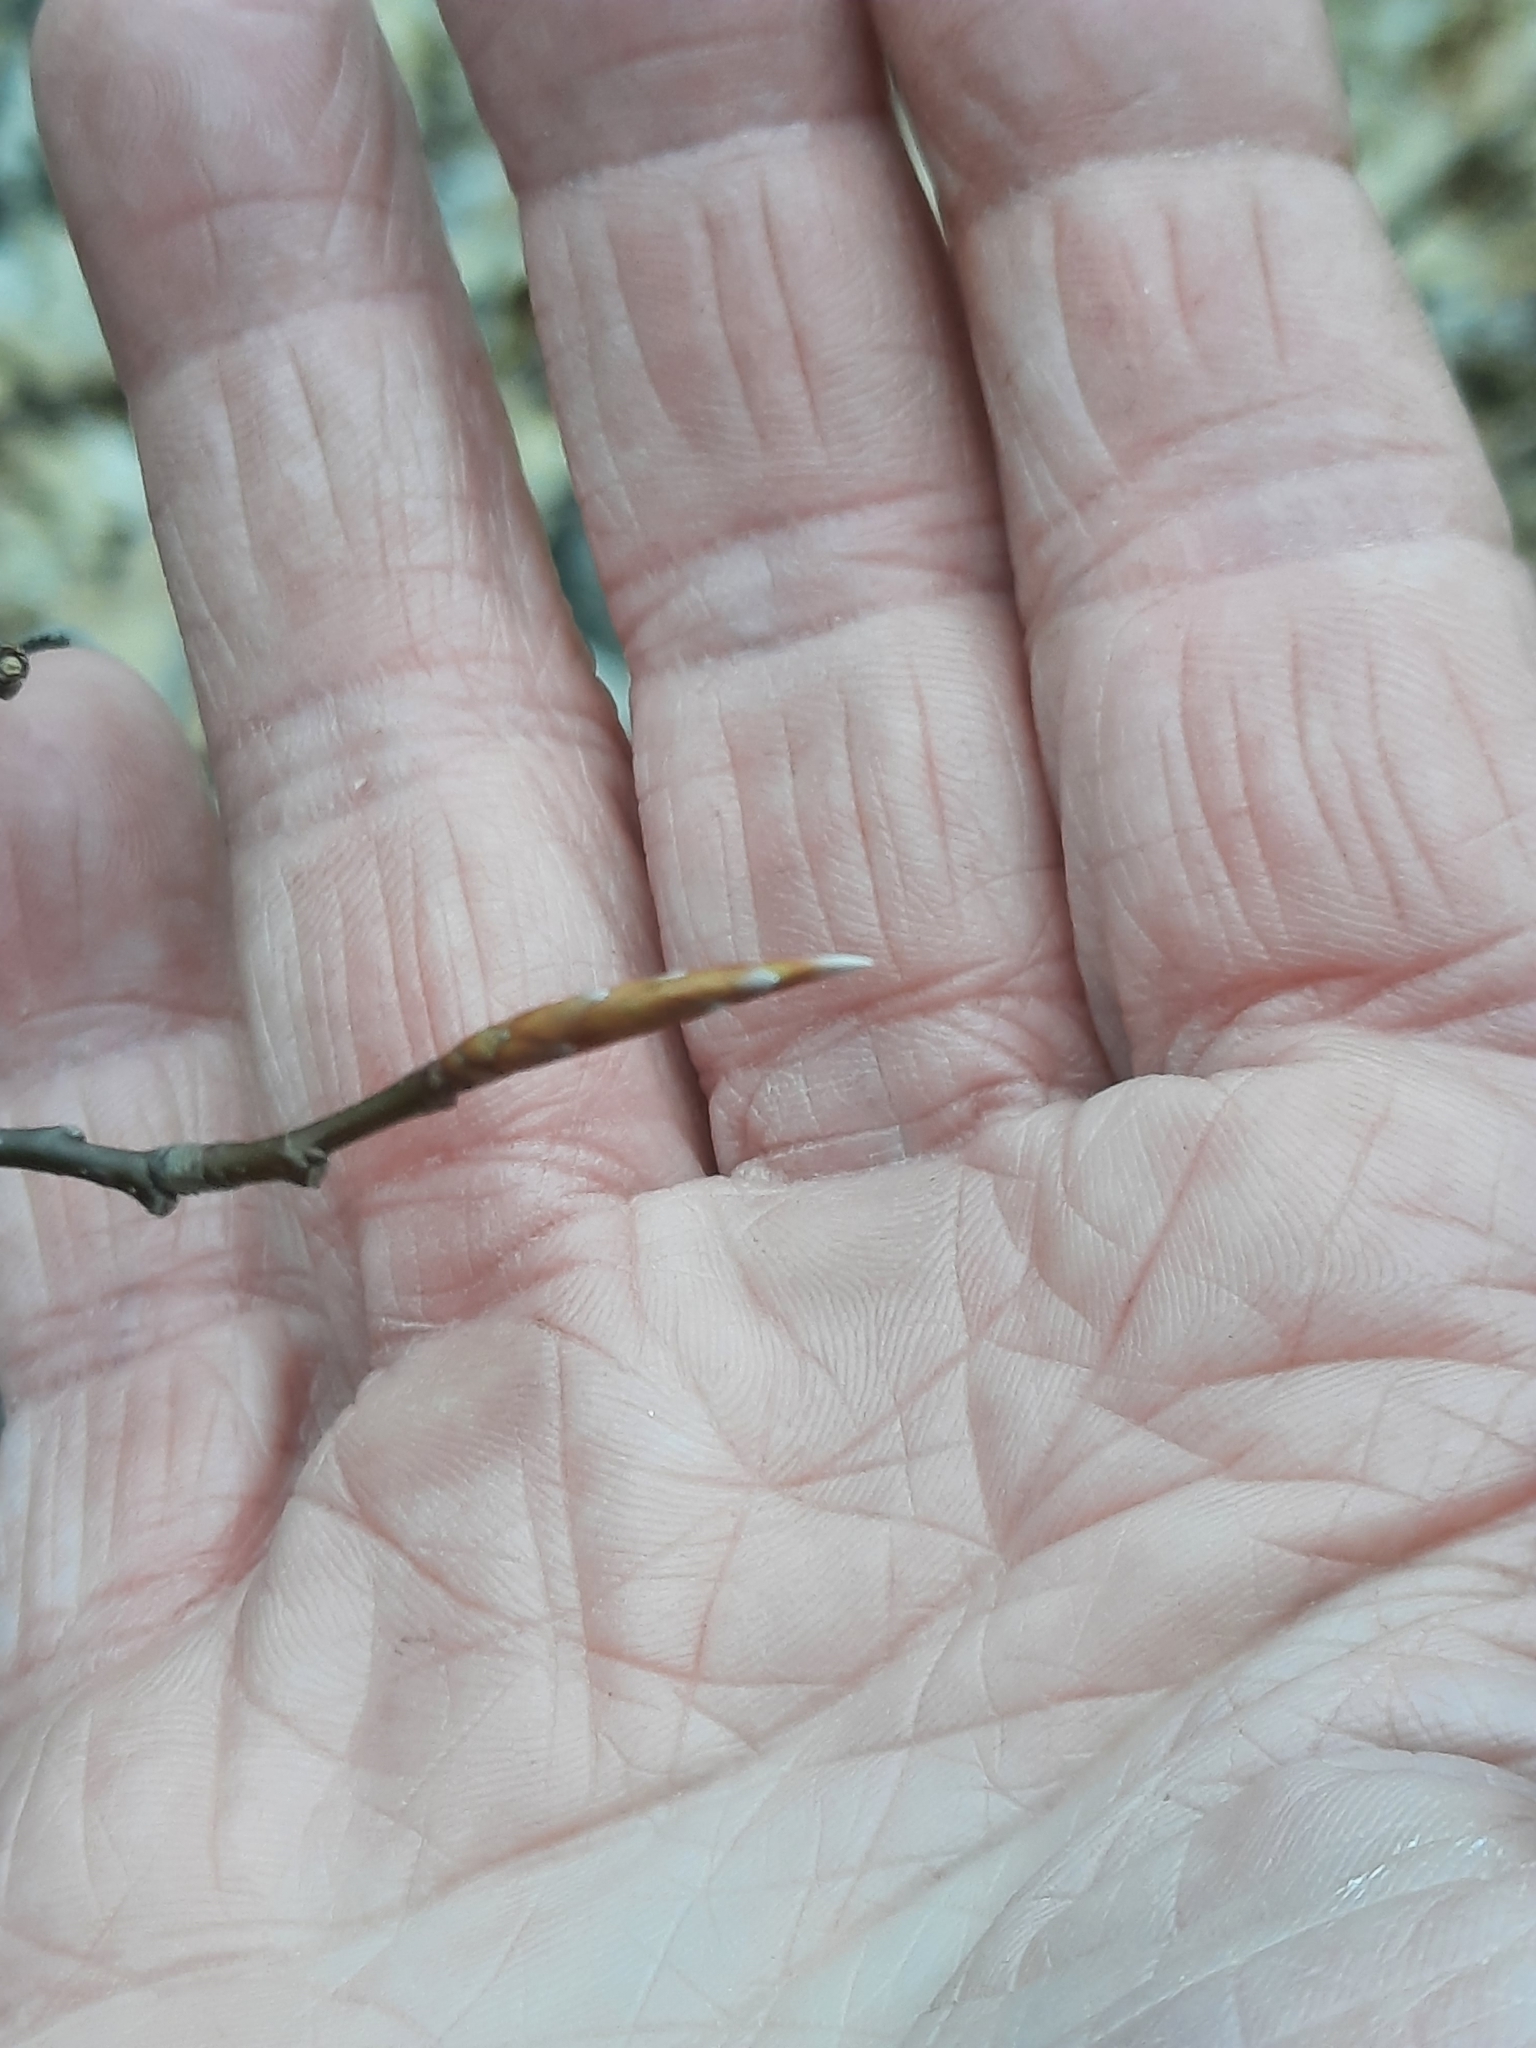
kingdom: Plantae
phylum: Tracheophyta
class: Magnoliopsida
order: Fagales
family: Fagaceae
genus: Fagus
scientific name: Fagus grandifolia
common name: American beech
